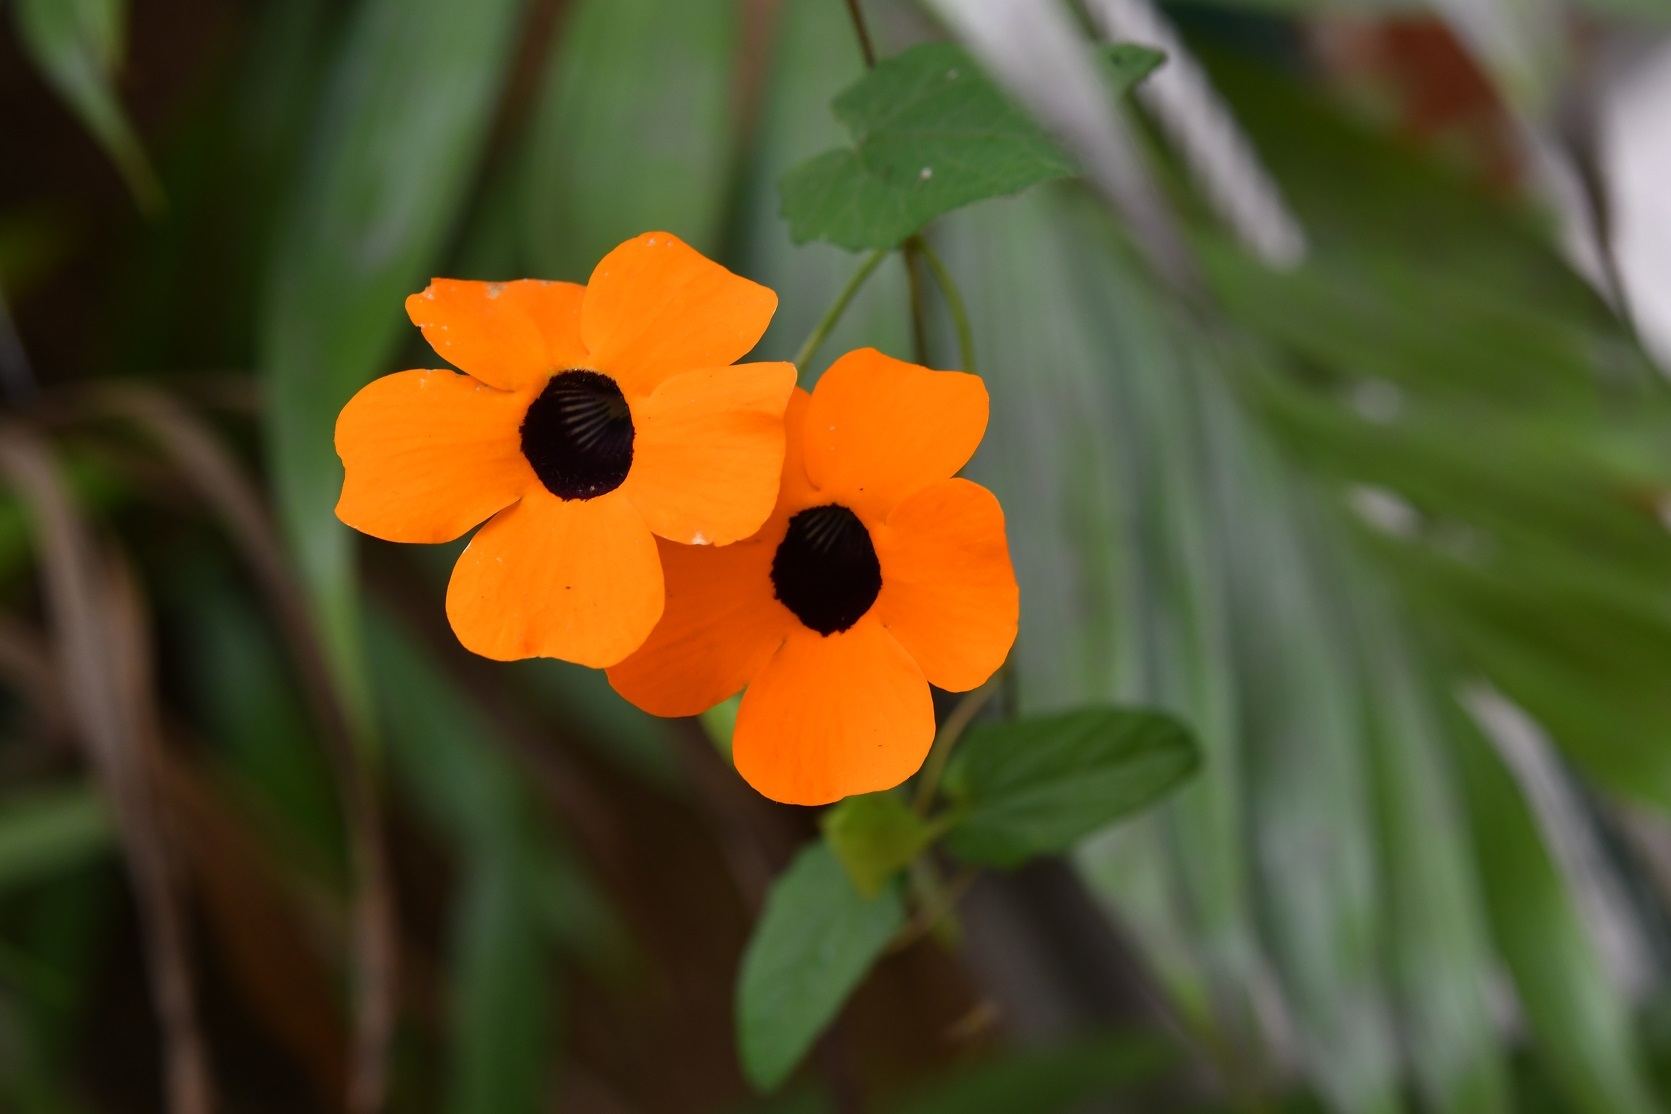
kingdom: Plantae
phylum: Tracheophyta
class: Magnoliopsida
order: Lamiales
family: Acanthaceae
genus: Thunbergia
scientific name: Thunbergia alata
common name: Blackeyed susan vine
